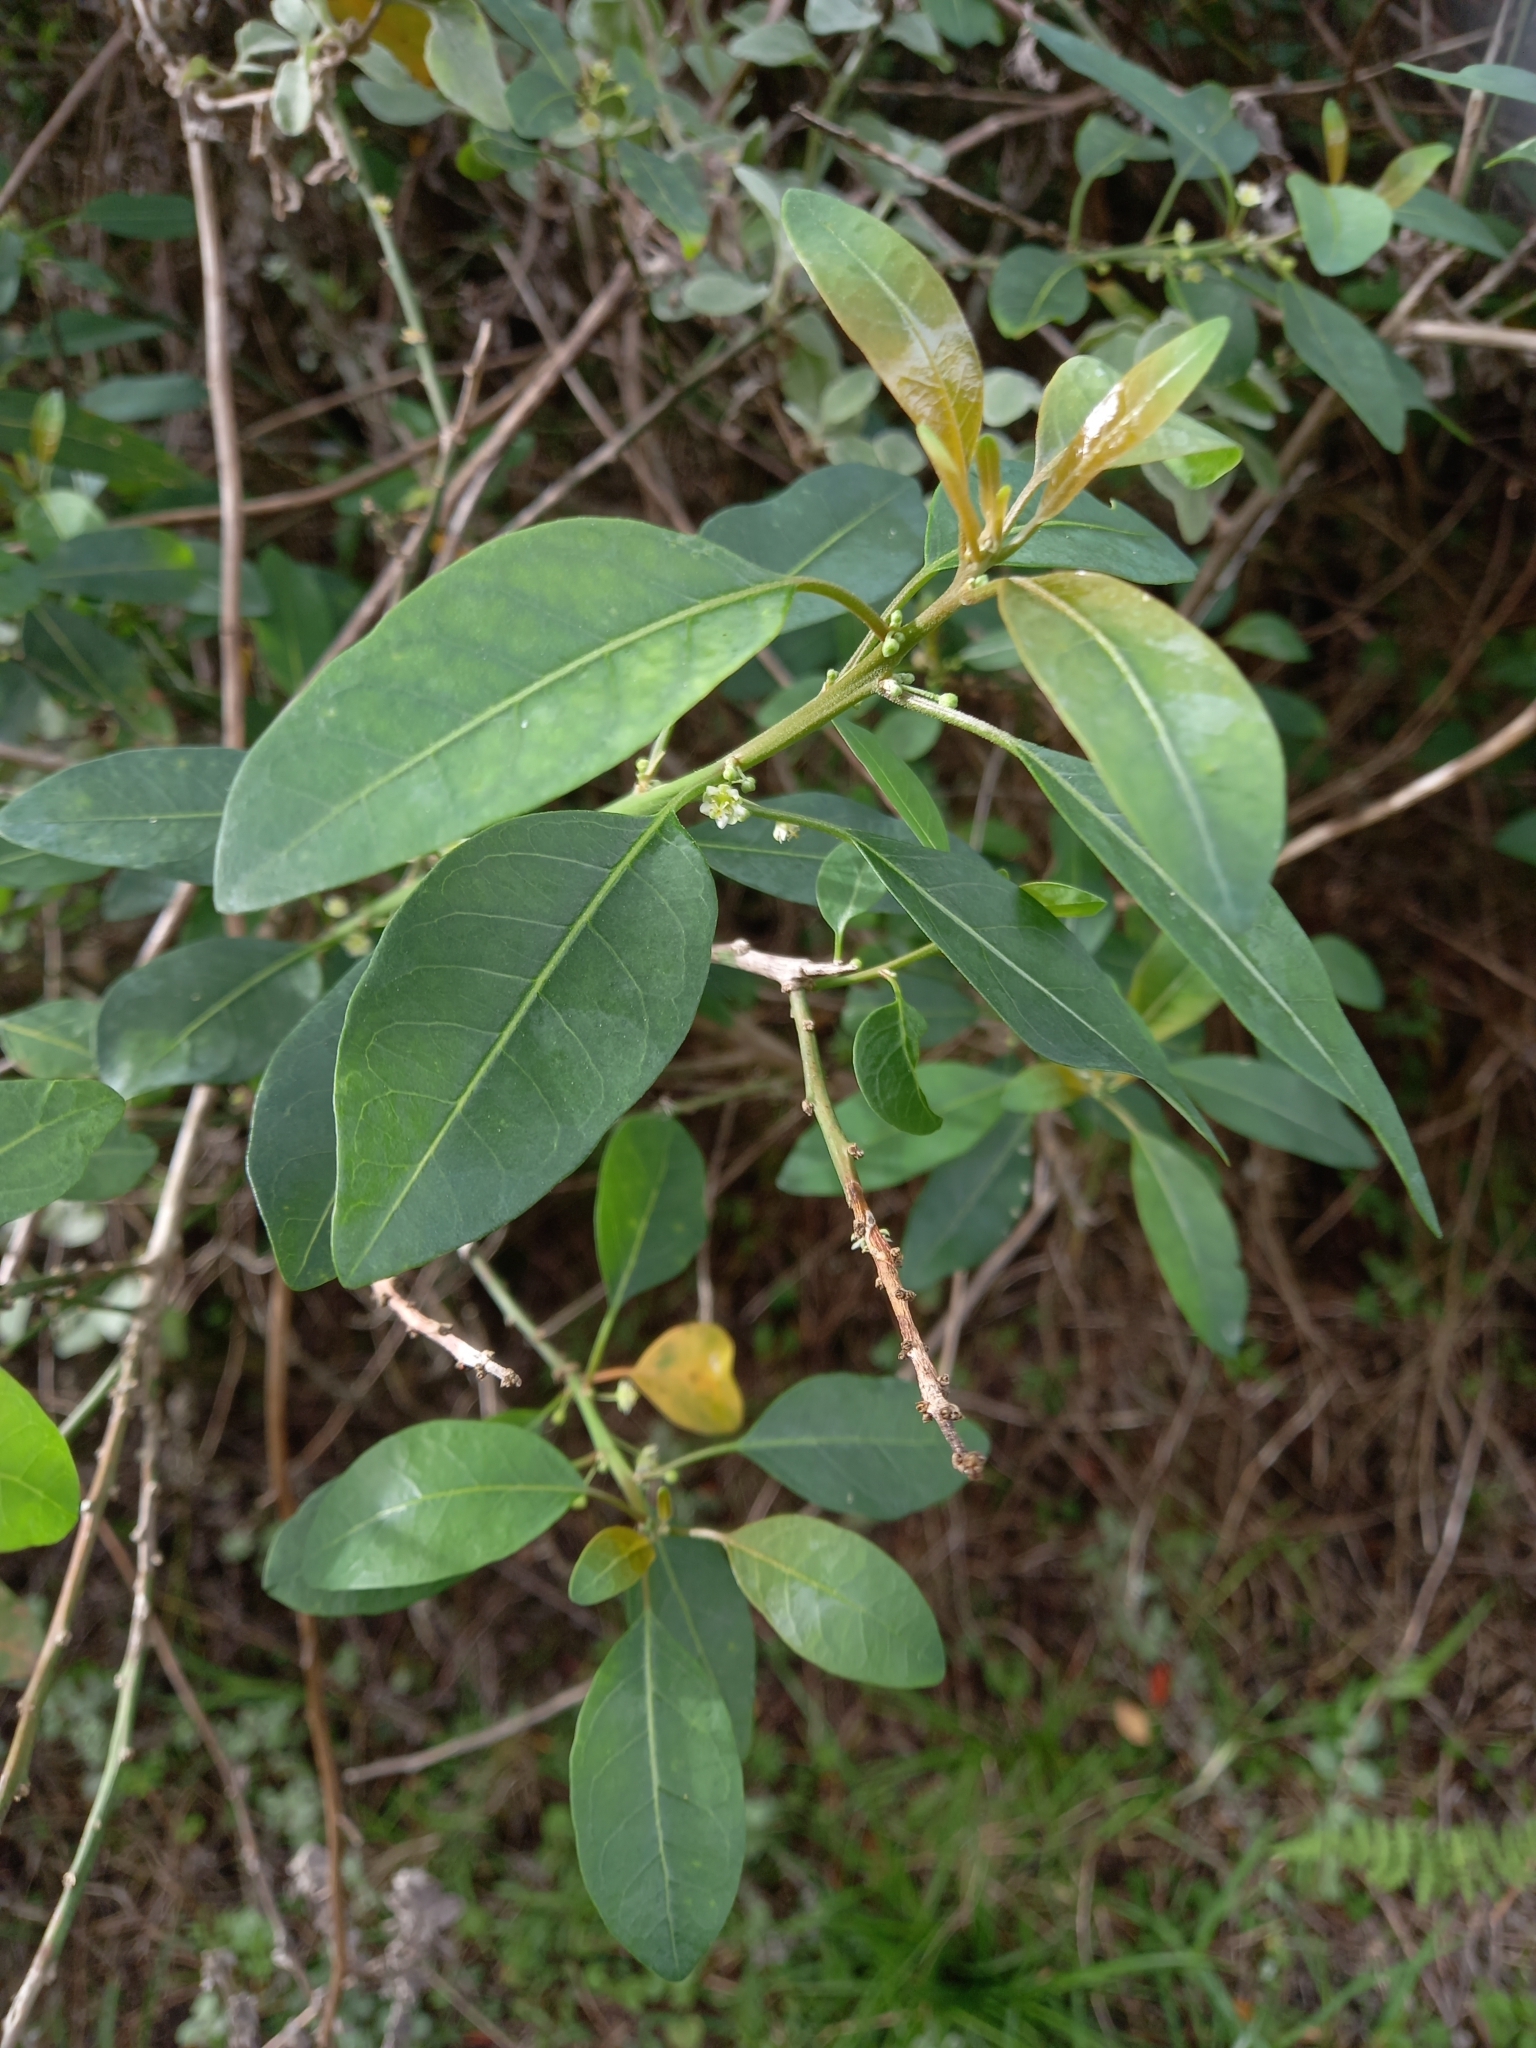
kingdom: Plantae
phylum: Tracheophyta
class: Magnoliopsida
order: Malpighiales
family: Peraceae
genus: Clutia
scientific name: Clutia pulchella
